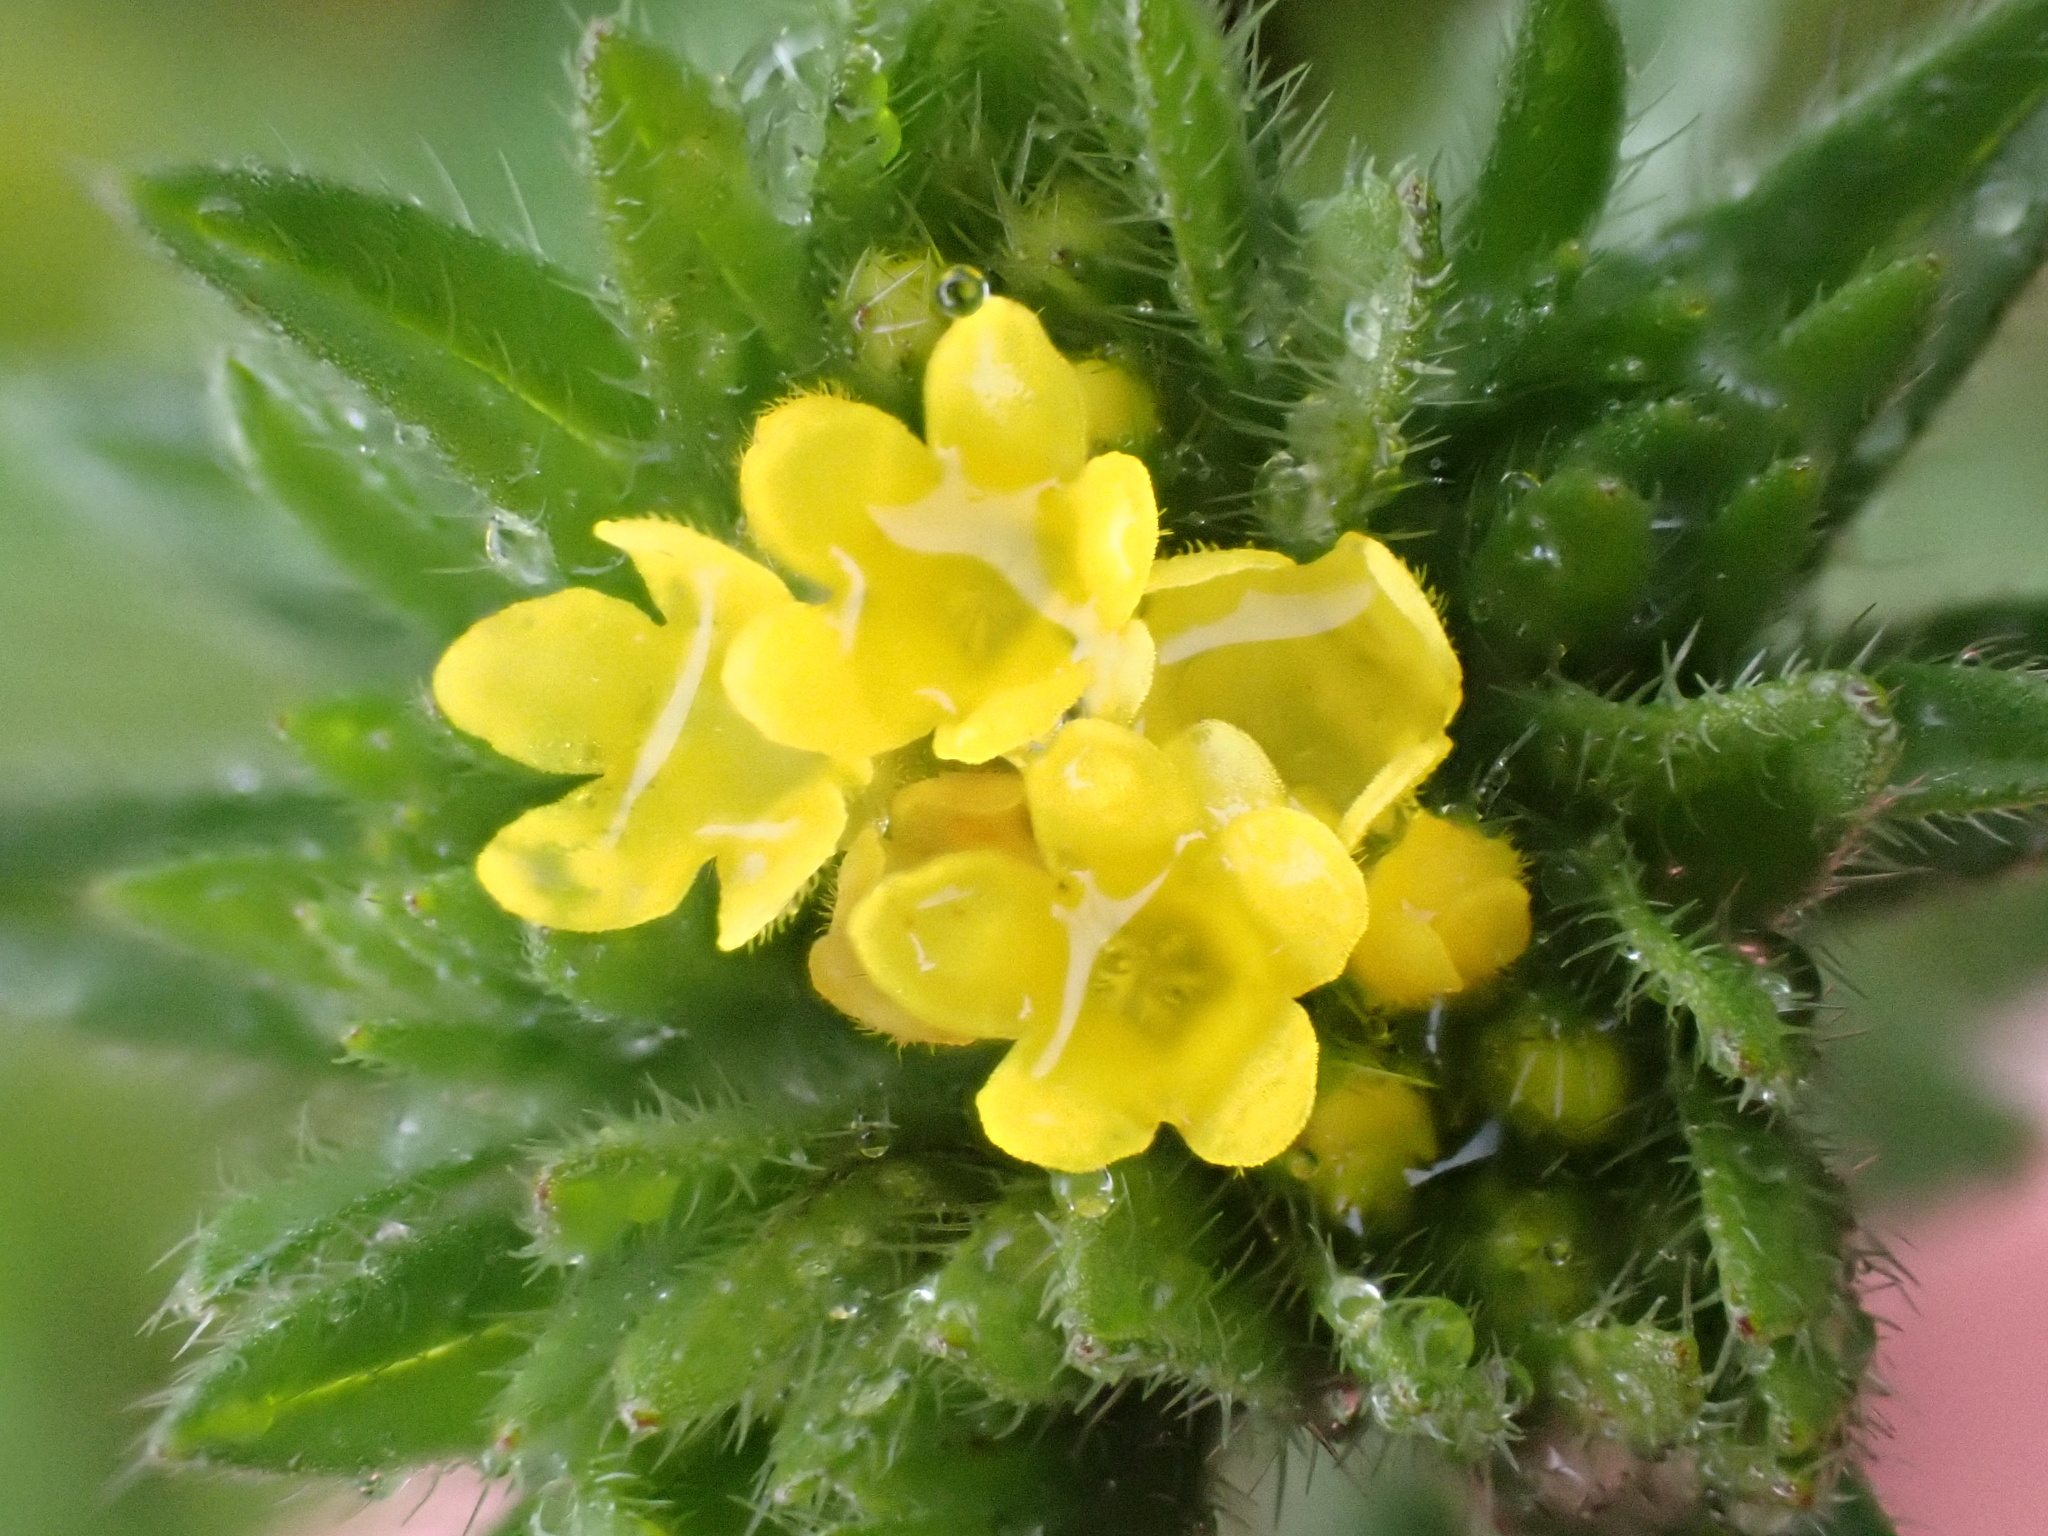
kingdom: Plantae
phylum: Tracheophyta
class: Magnoliopsida
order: Boraginales
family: Boraginaceae
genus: Neatostema
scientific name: Neatostema apulum
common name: Hairy sheepweed
